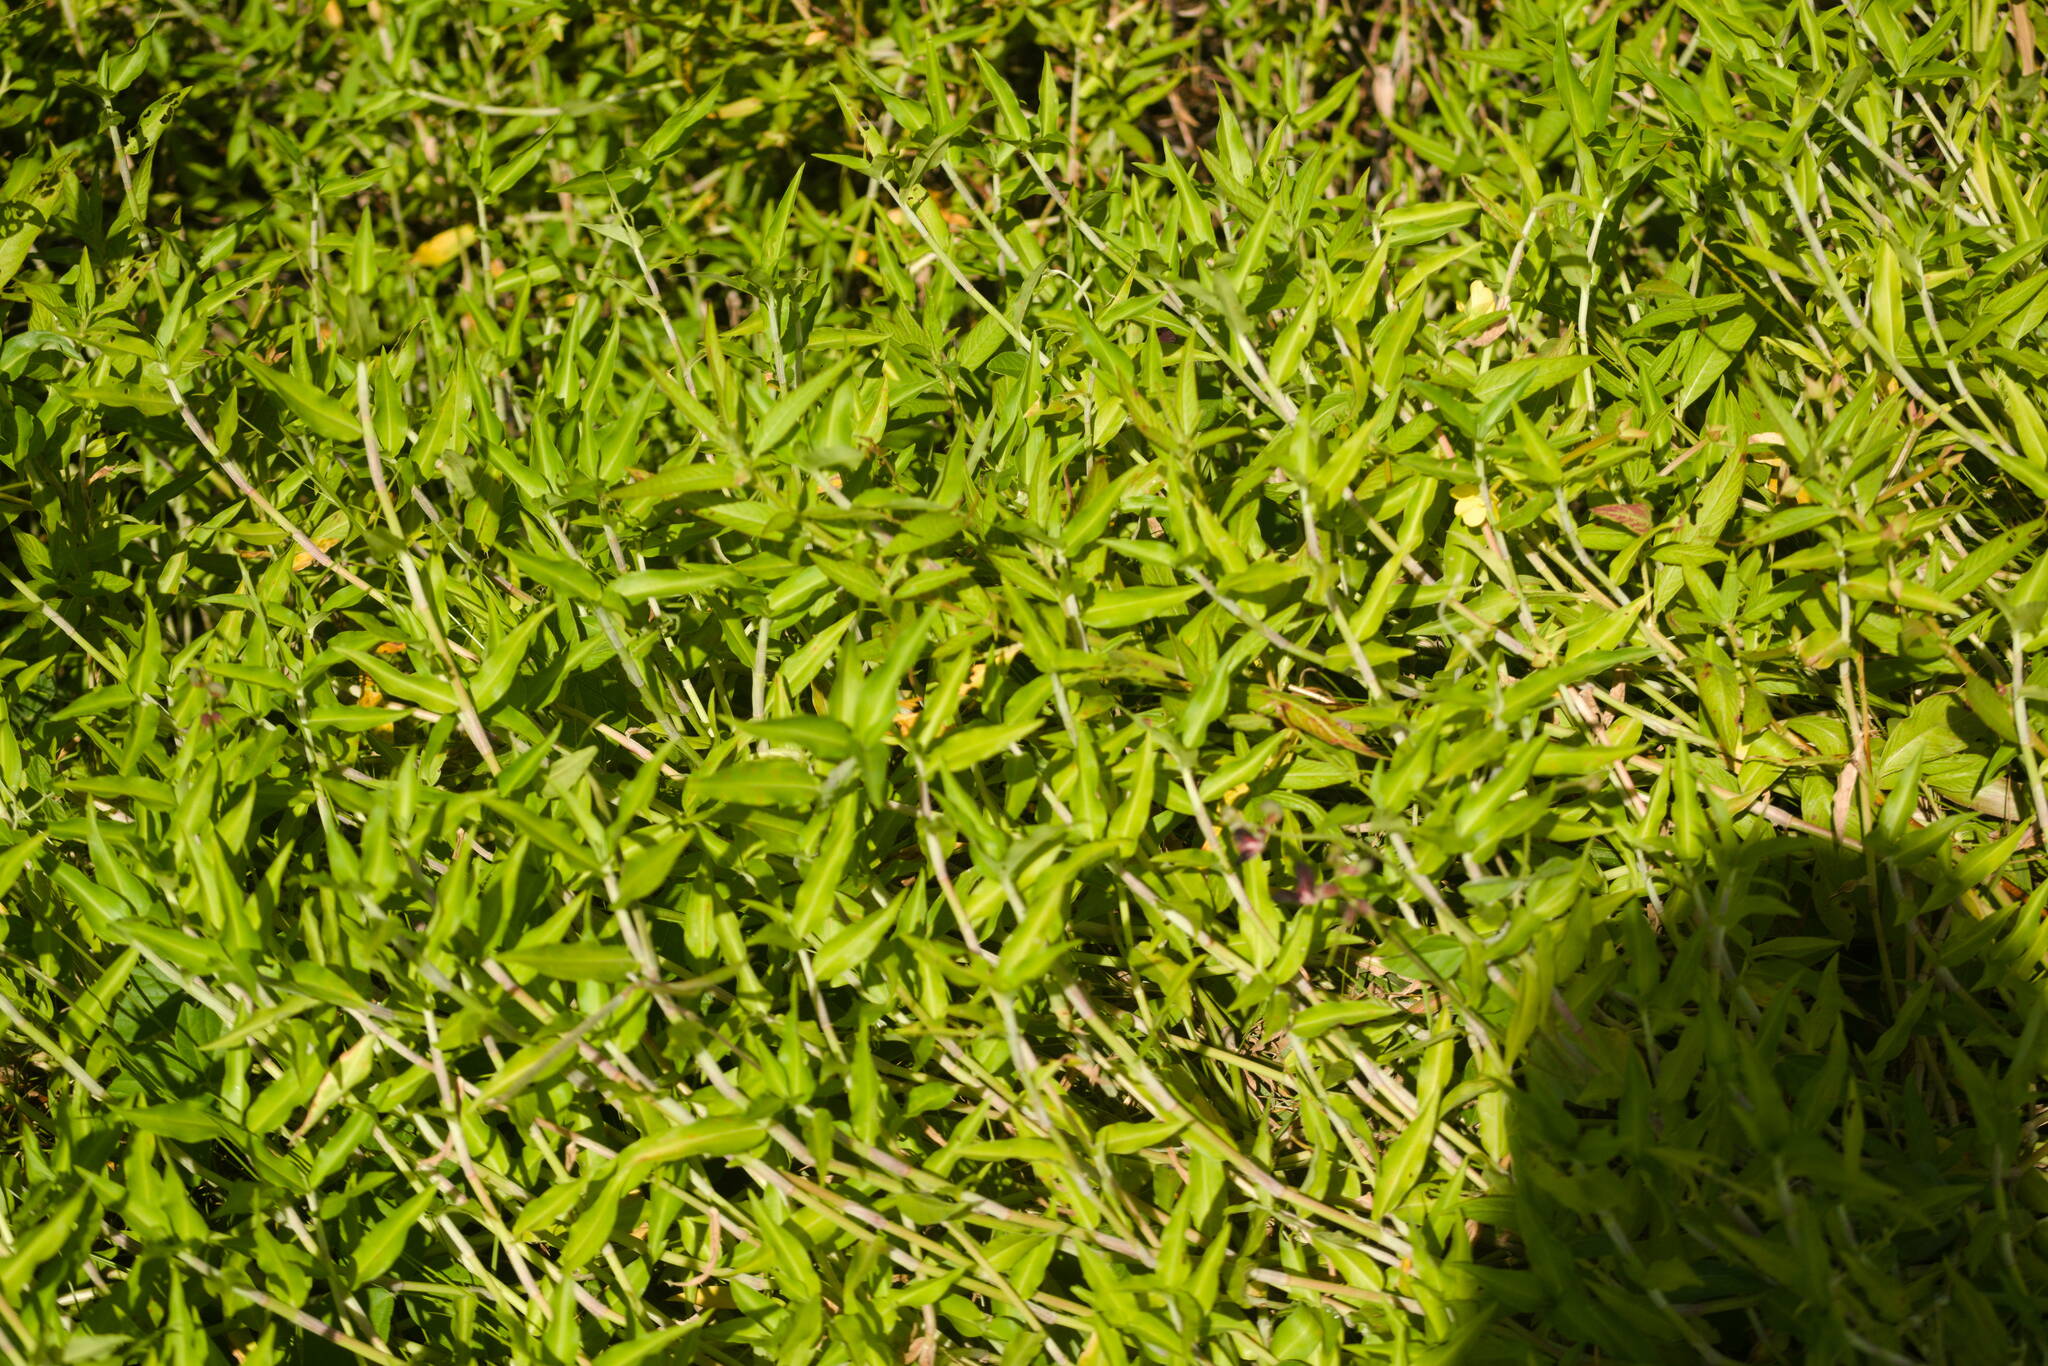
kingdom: Plantae
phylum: Tracheophyta
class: Liliopsida
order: Commelinales
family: Commelinaceae
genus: Commelina
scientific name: Commelina diffusa
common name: Climbing dayflower
